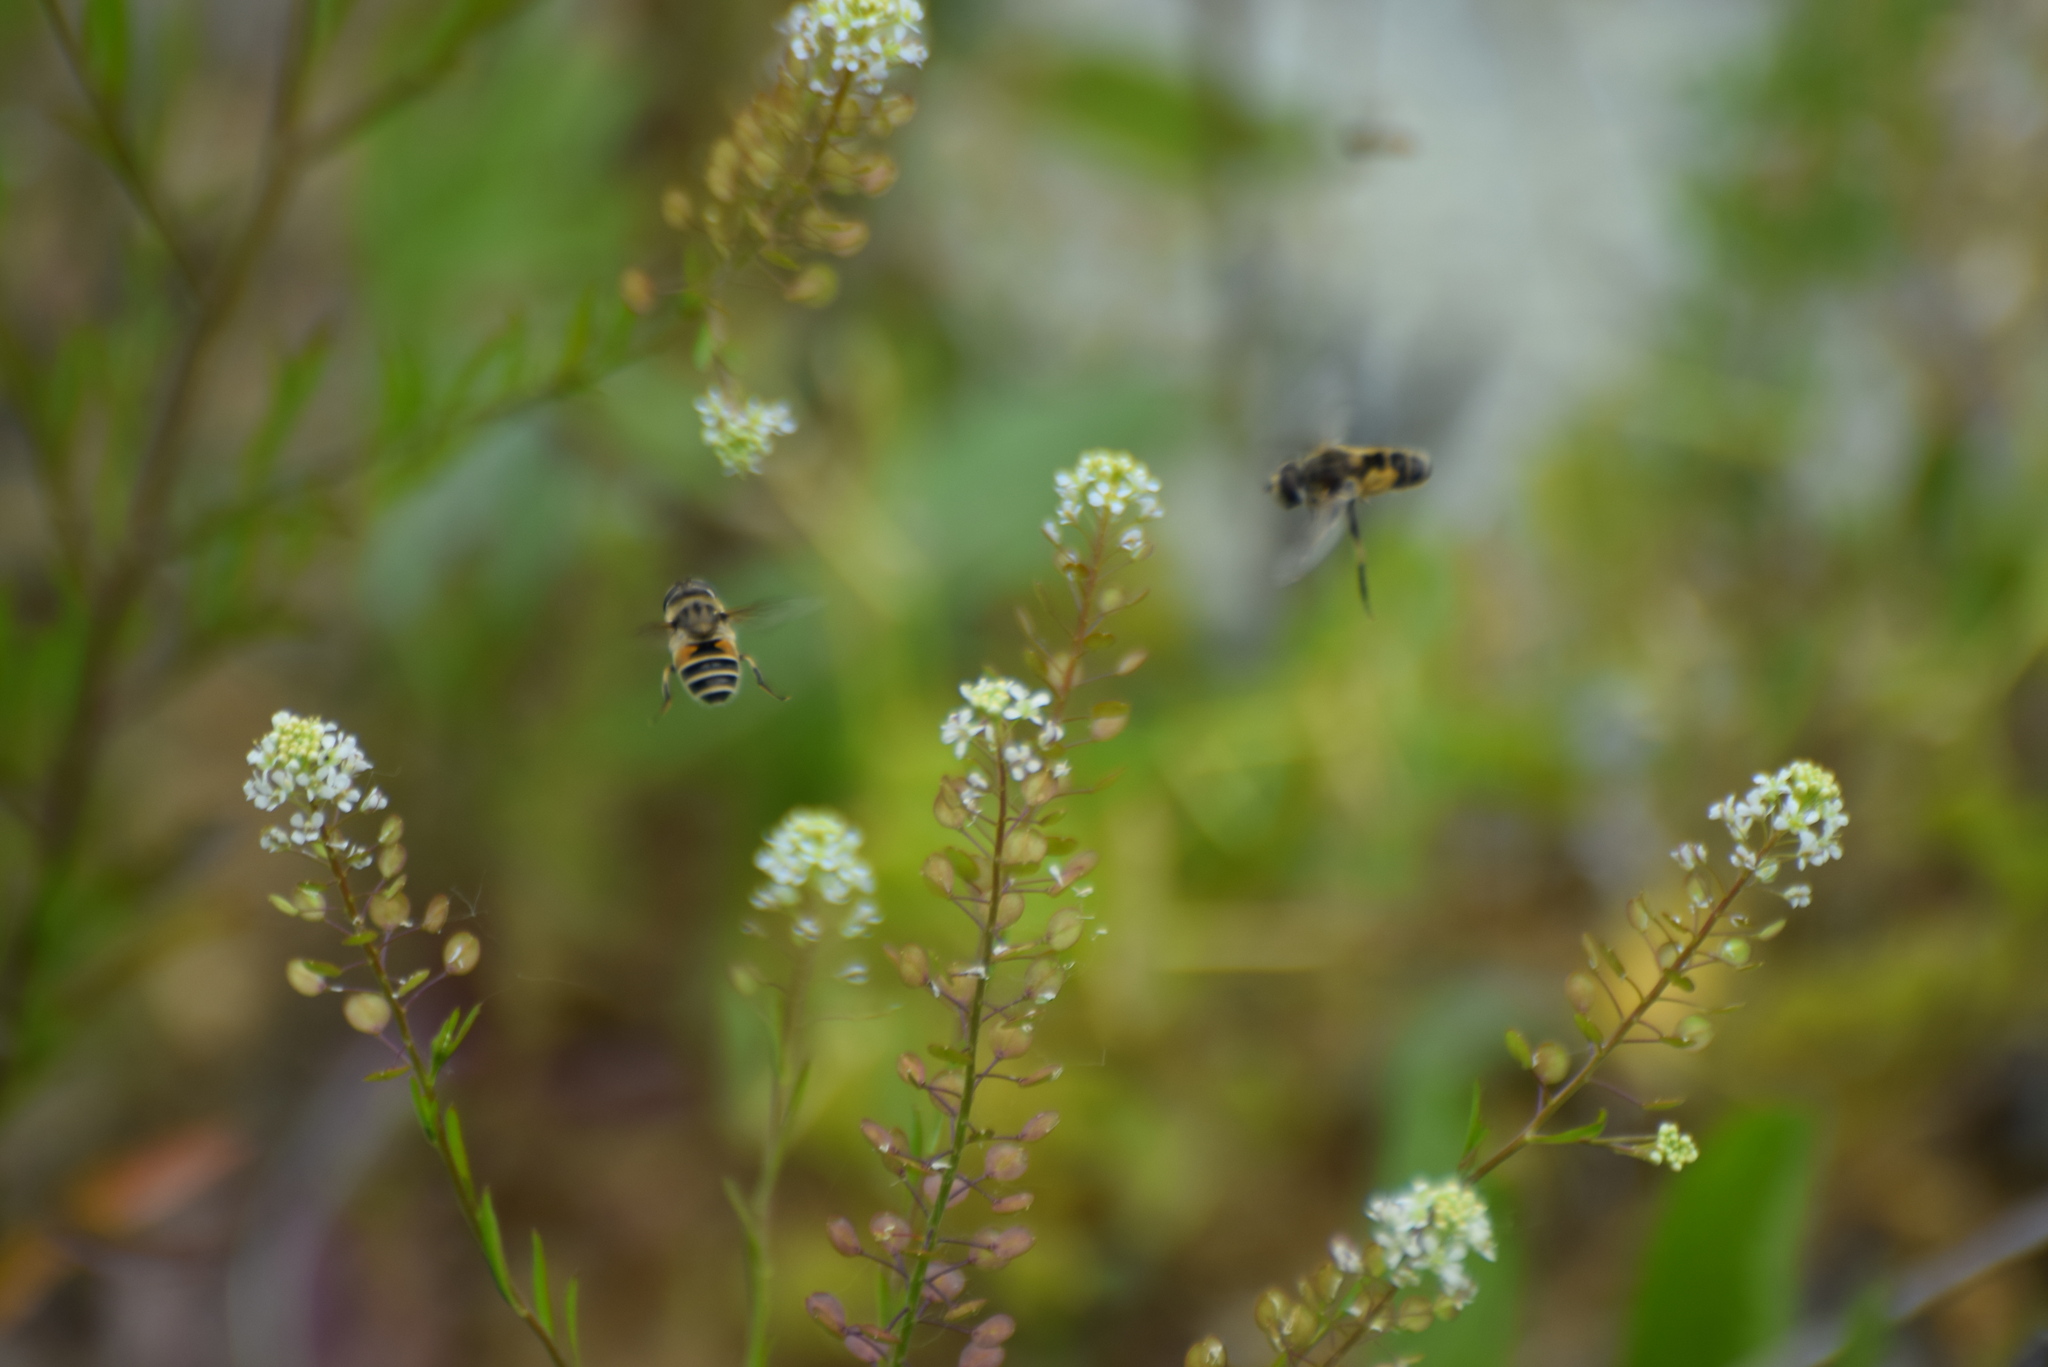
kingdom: Animalia
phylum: Arthropoda
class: Insecta
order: Diptera
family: Syrphidae
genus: Eristalis
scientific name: Eristalis arbustorum
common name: Hover fly
